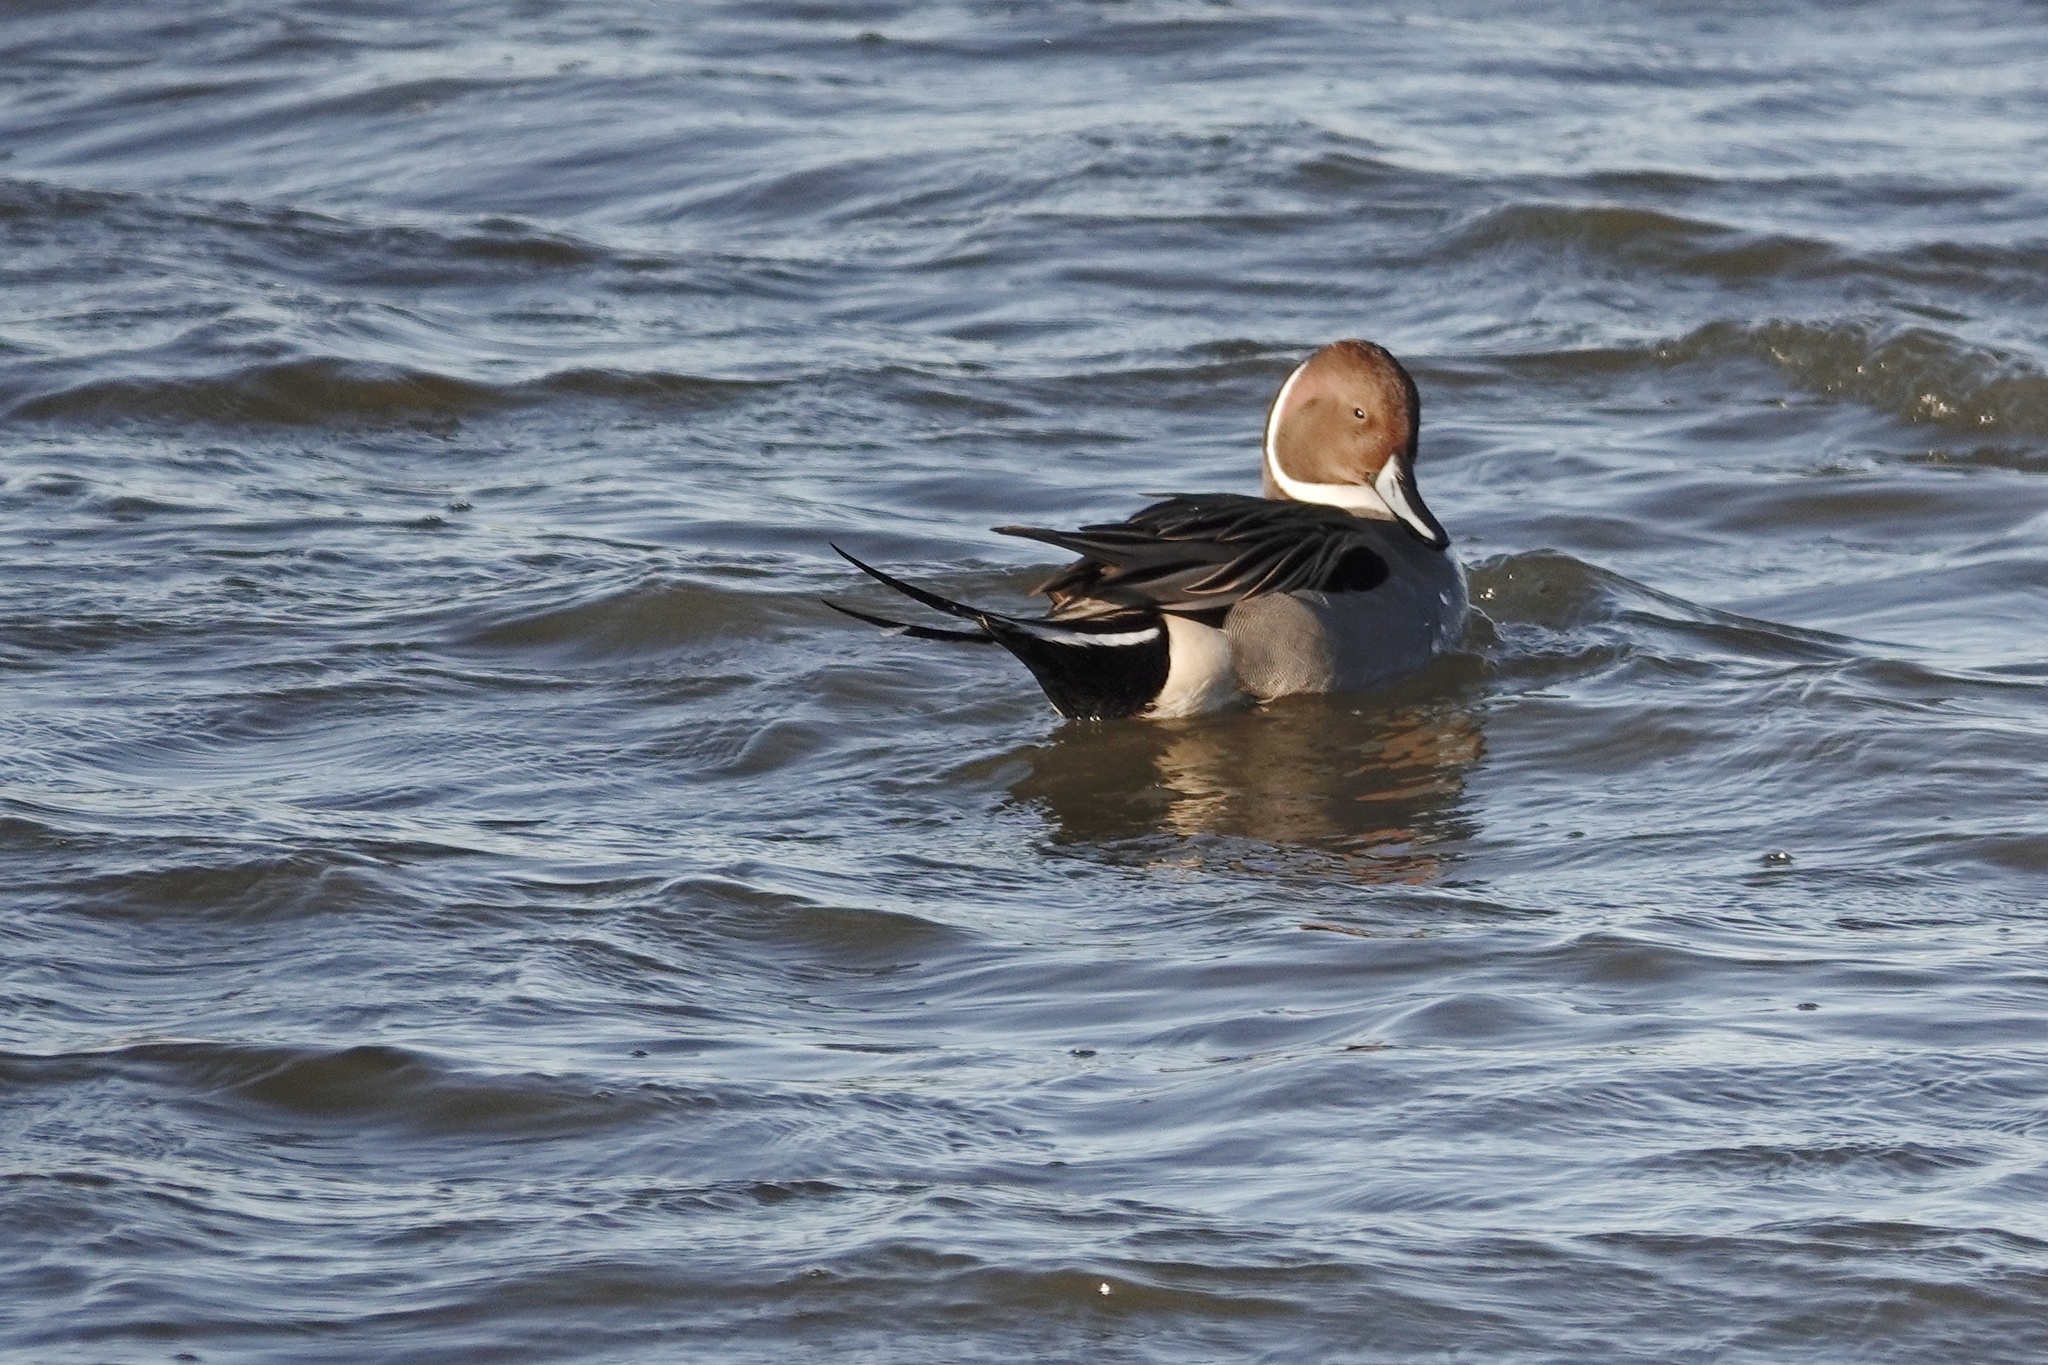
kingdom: Animalia
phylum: Chordata
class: Aves
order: Anseriformes
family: Anatidae
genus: Anas
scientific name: Anas acuta
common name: Northern pintail
